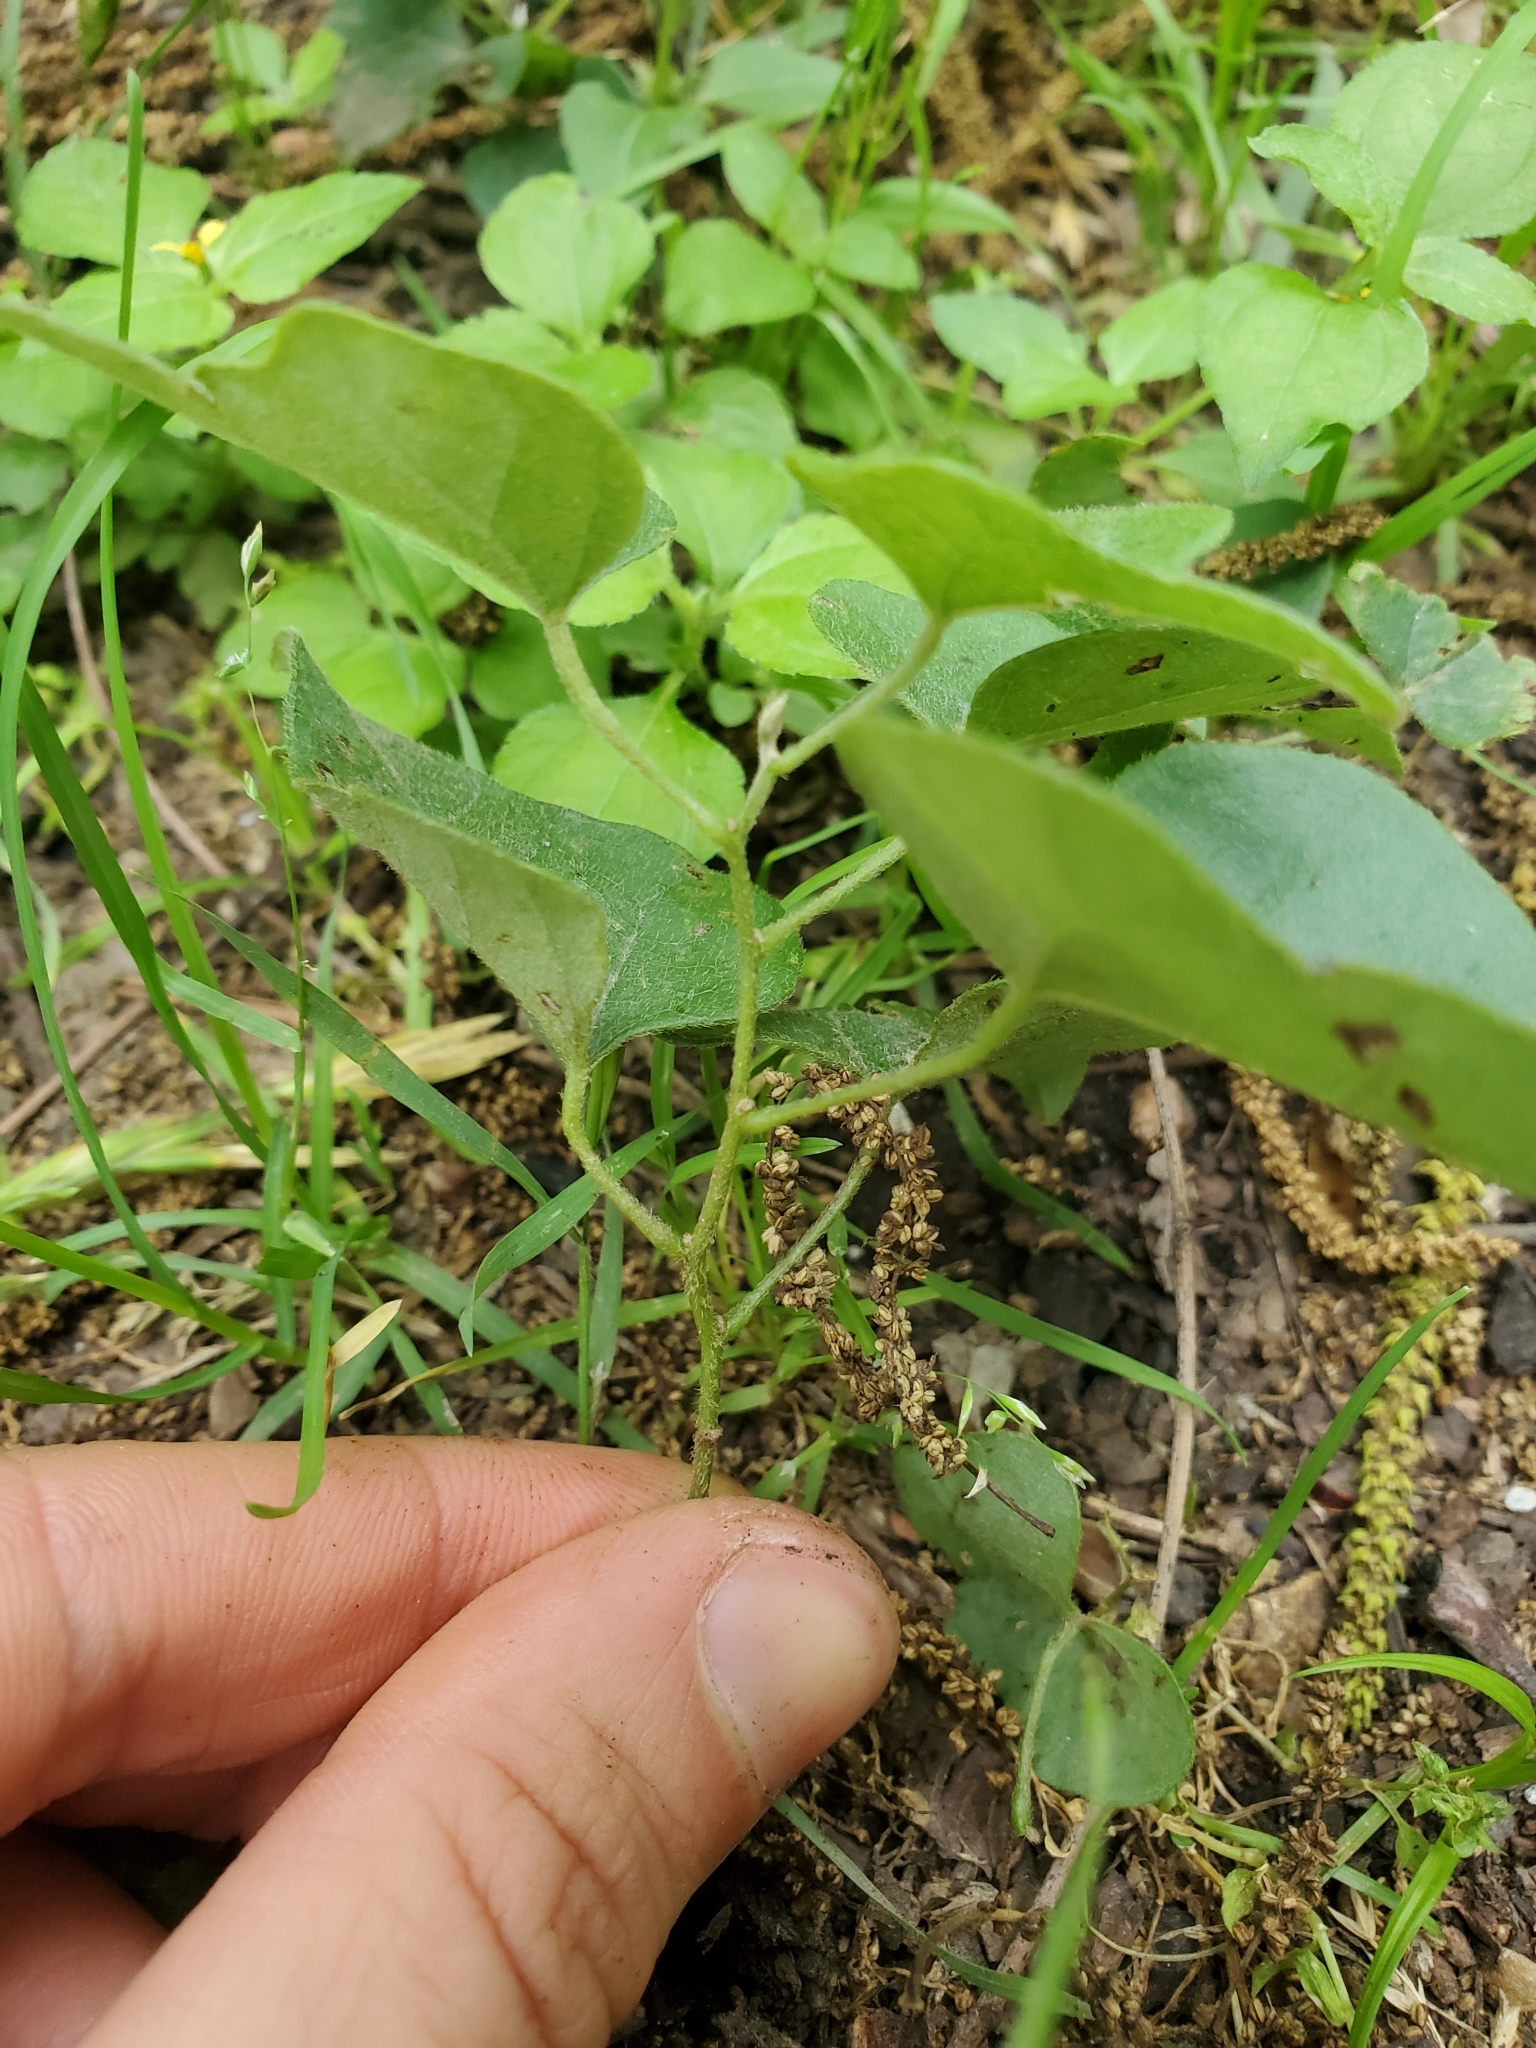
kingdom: Plantae
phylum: Tracheophyta
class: Magnoliopsida
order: Ranunculales
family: Menispermaceae
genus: Cocculus
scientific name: Cocculus carolinus
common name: Carolina moonseed
